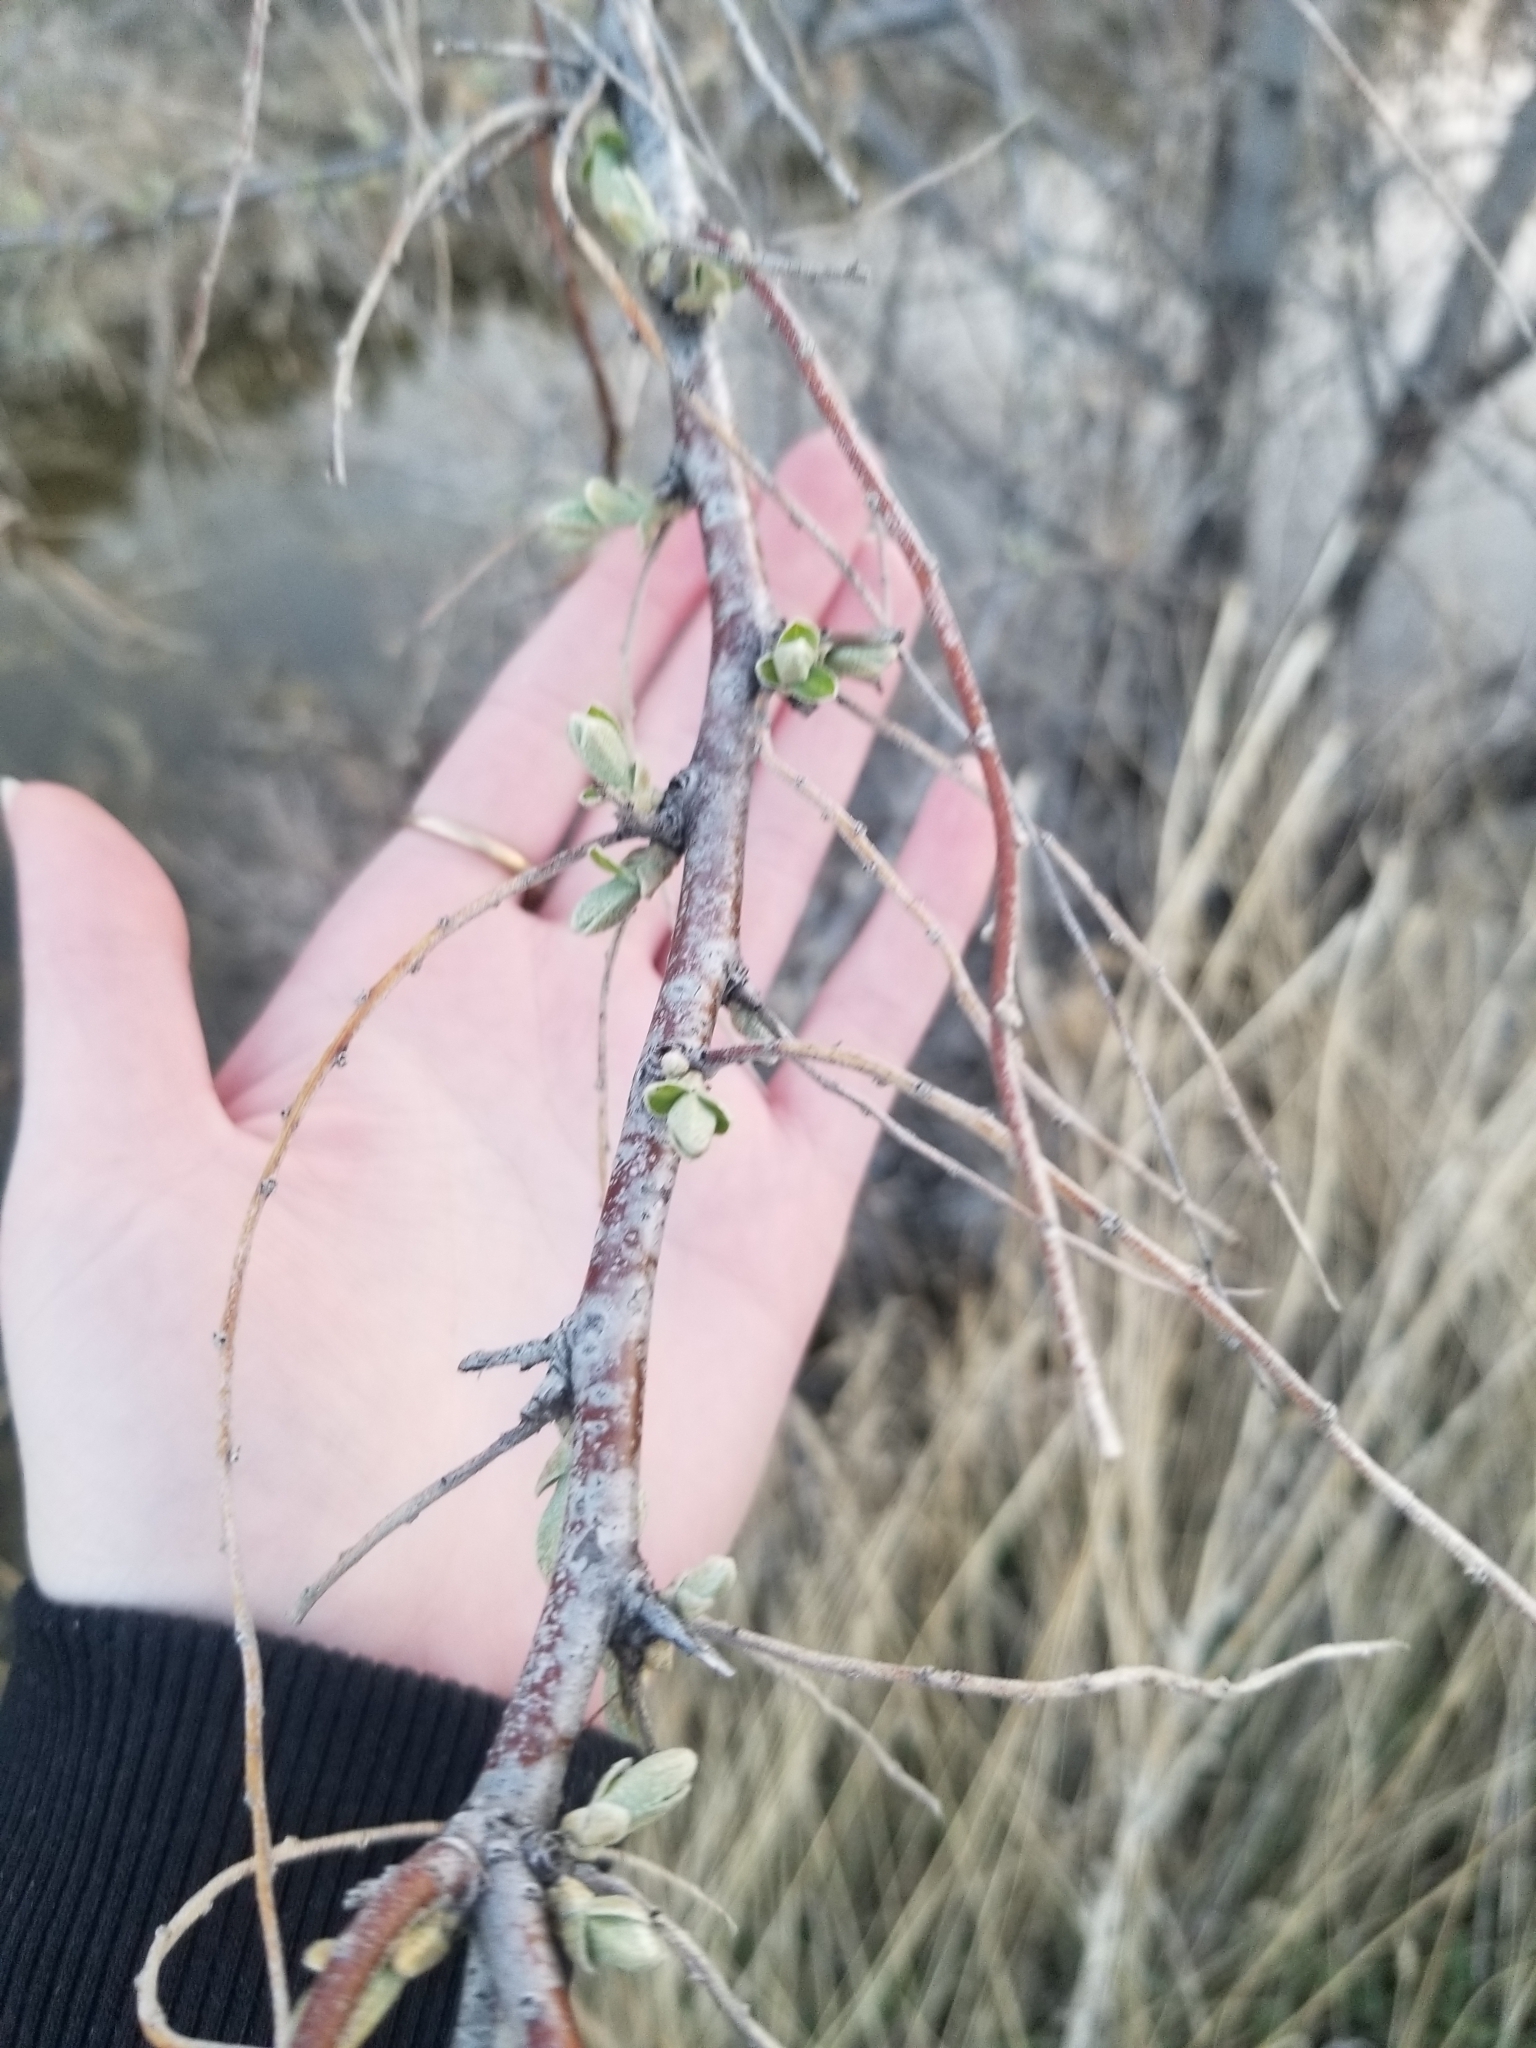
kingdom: Plantae
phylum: Tracheophyta
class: Magnoliopsida
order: Rosales
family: Elaeagnaceae
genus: Elaeagnus
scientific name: Elaeagnus angustifolia
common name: Russian olive
